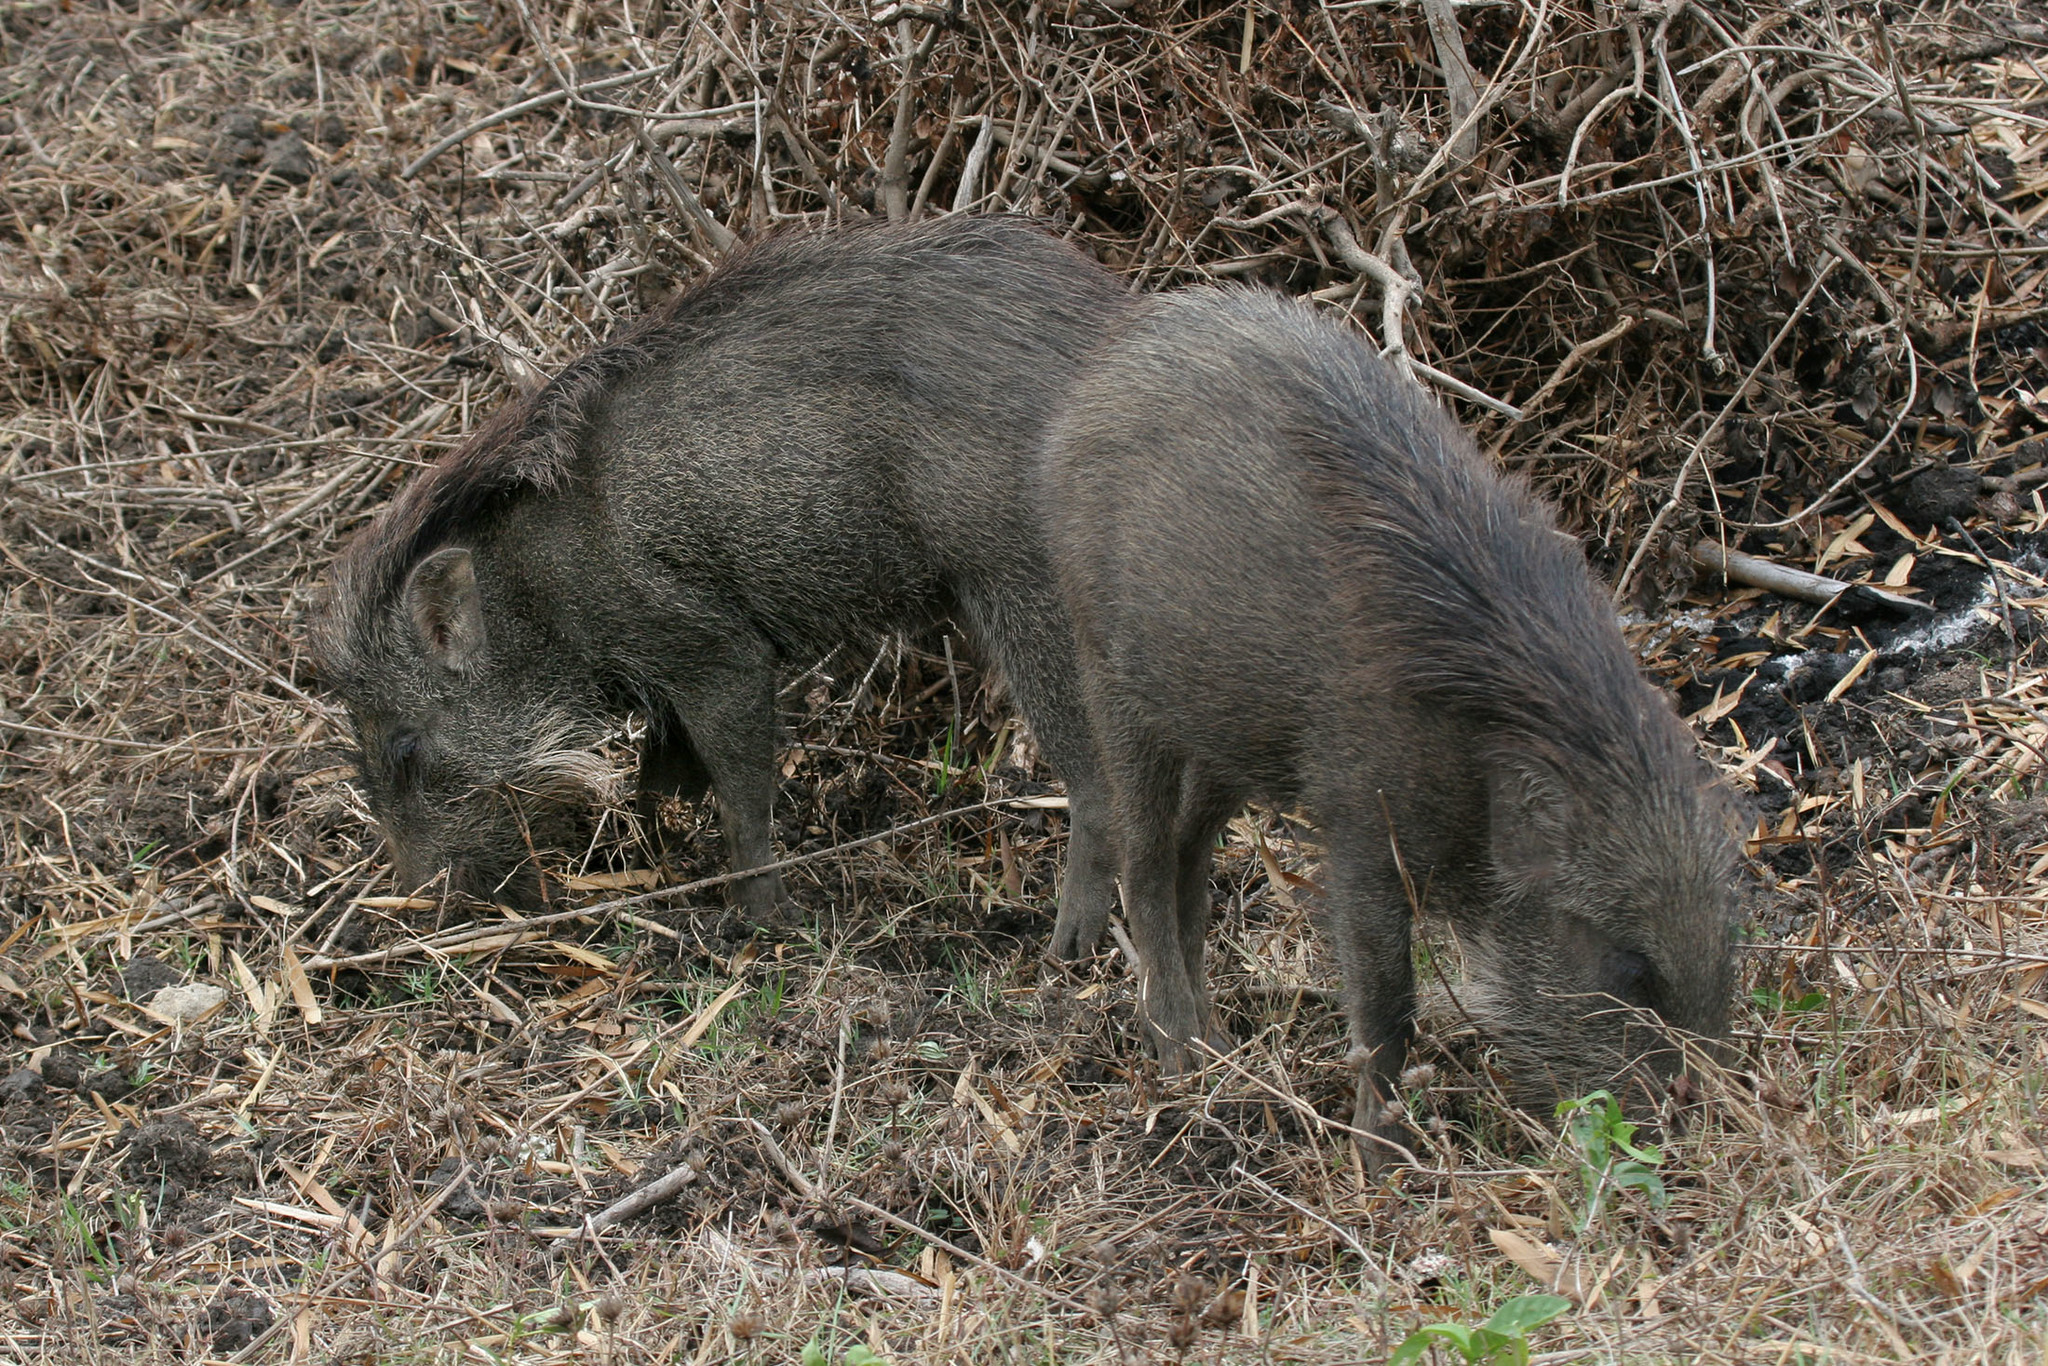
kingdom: Animalia
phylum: Chordata
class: Mammalia
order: Artiodactyla
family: Suidae
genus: Sus
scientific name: Sus scrofa
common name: Wild boar
